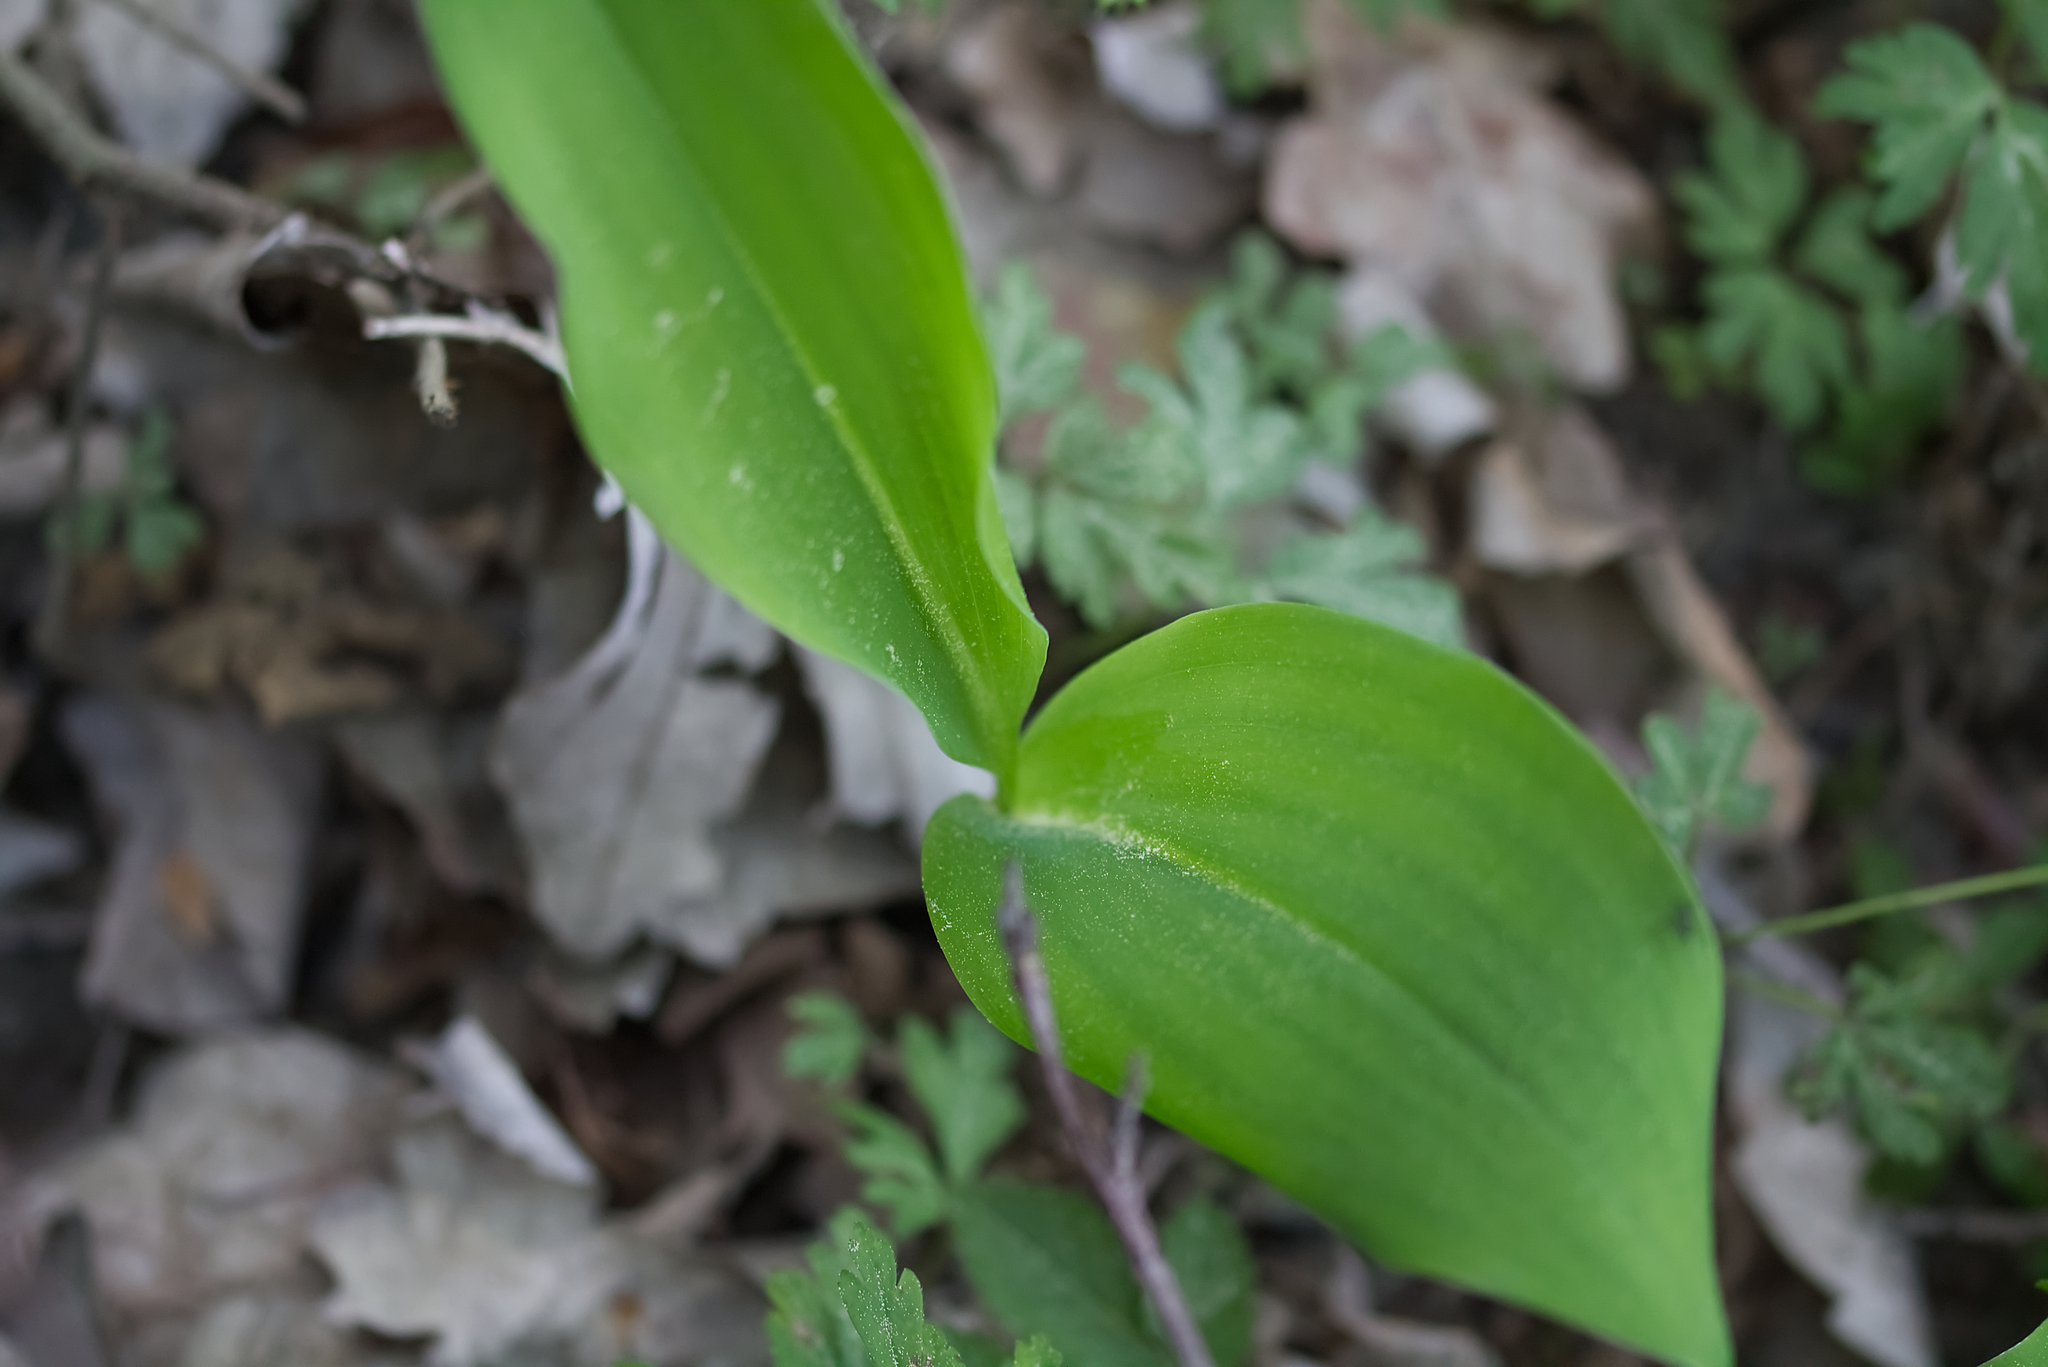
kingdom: Plantae
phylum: Tracheophyta
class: Liliopsida
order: Asparagales
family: Asparagaceae
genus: Convallaria
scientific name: Convallaria majalis
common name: Lily-of-the-valley
